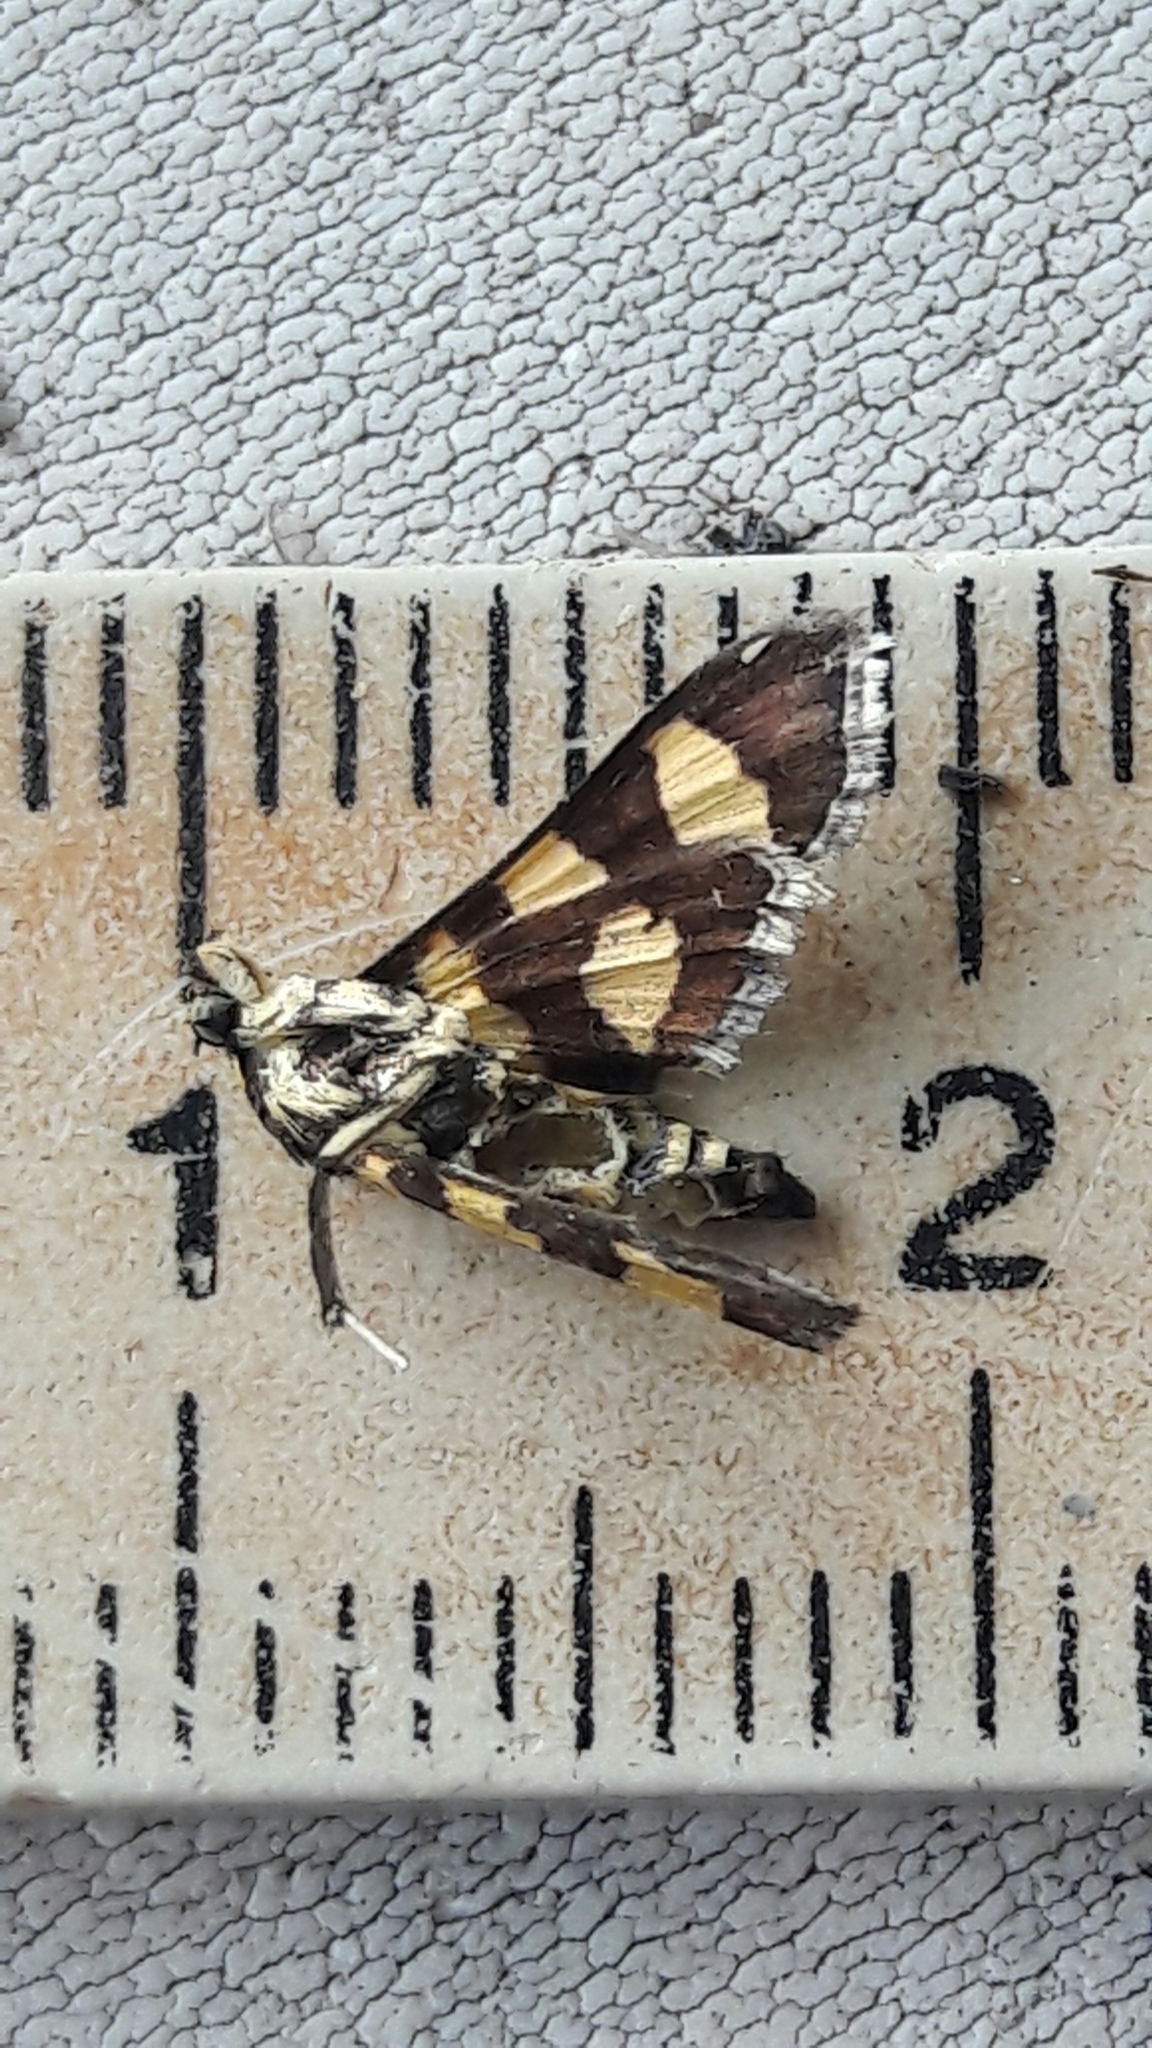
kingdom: Animalia
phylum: Arthropoda
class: Insecta
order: Lepidoptera
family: Crambidae
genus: Syngamia
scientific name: Syngamia florella
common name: Orange-spotted flower moth
